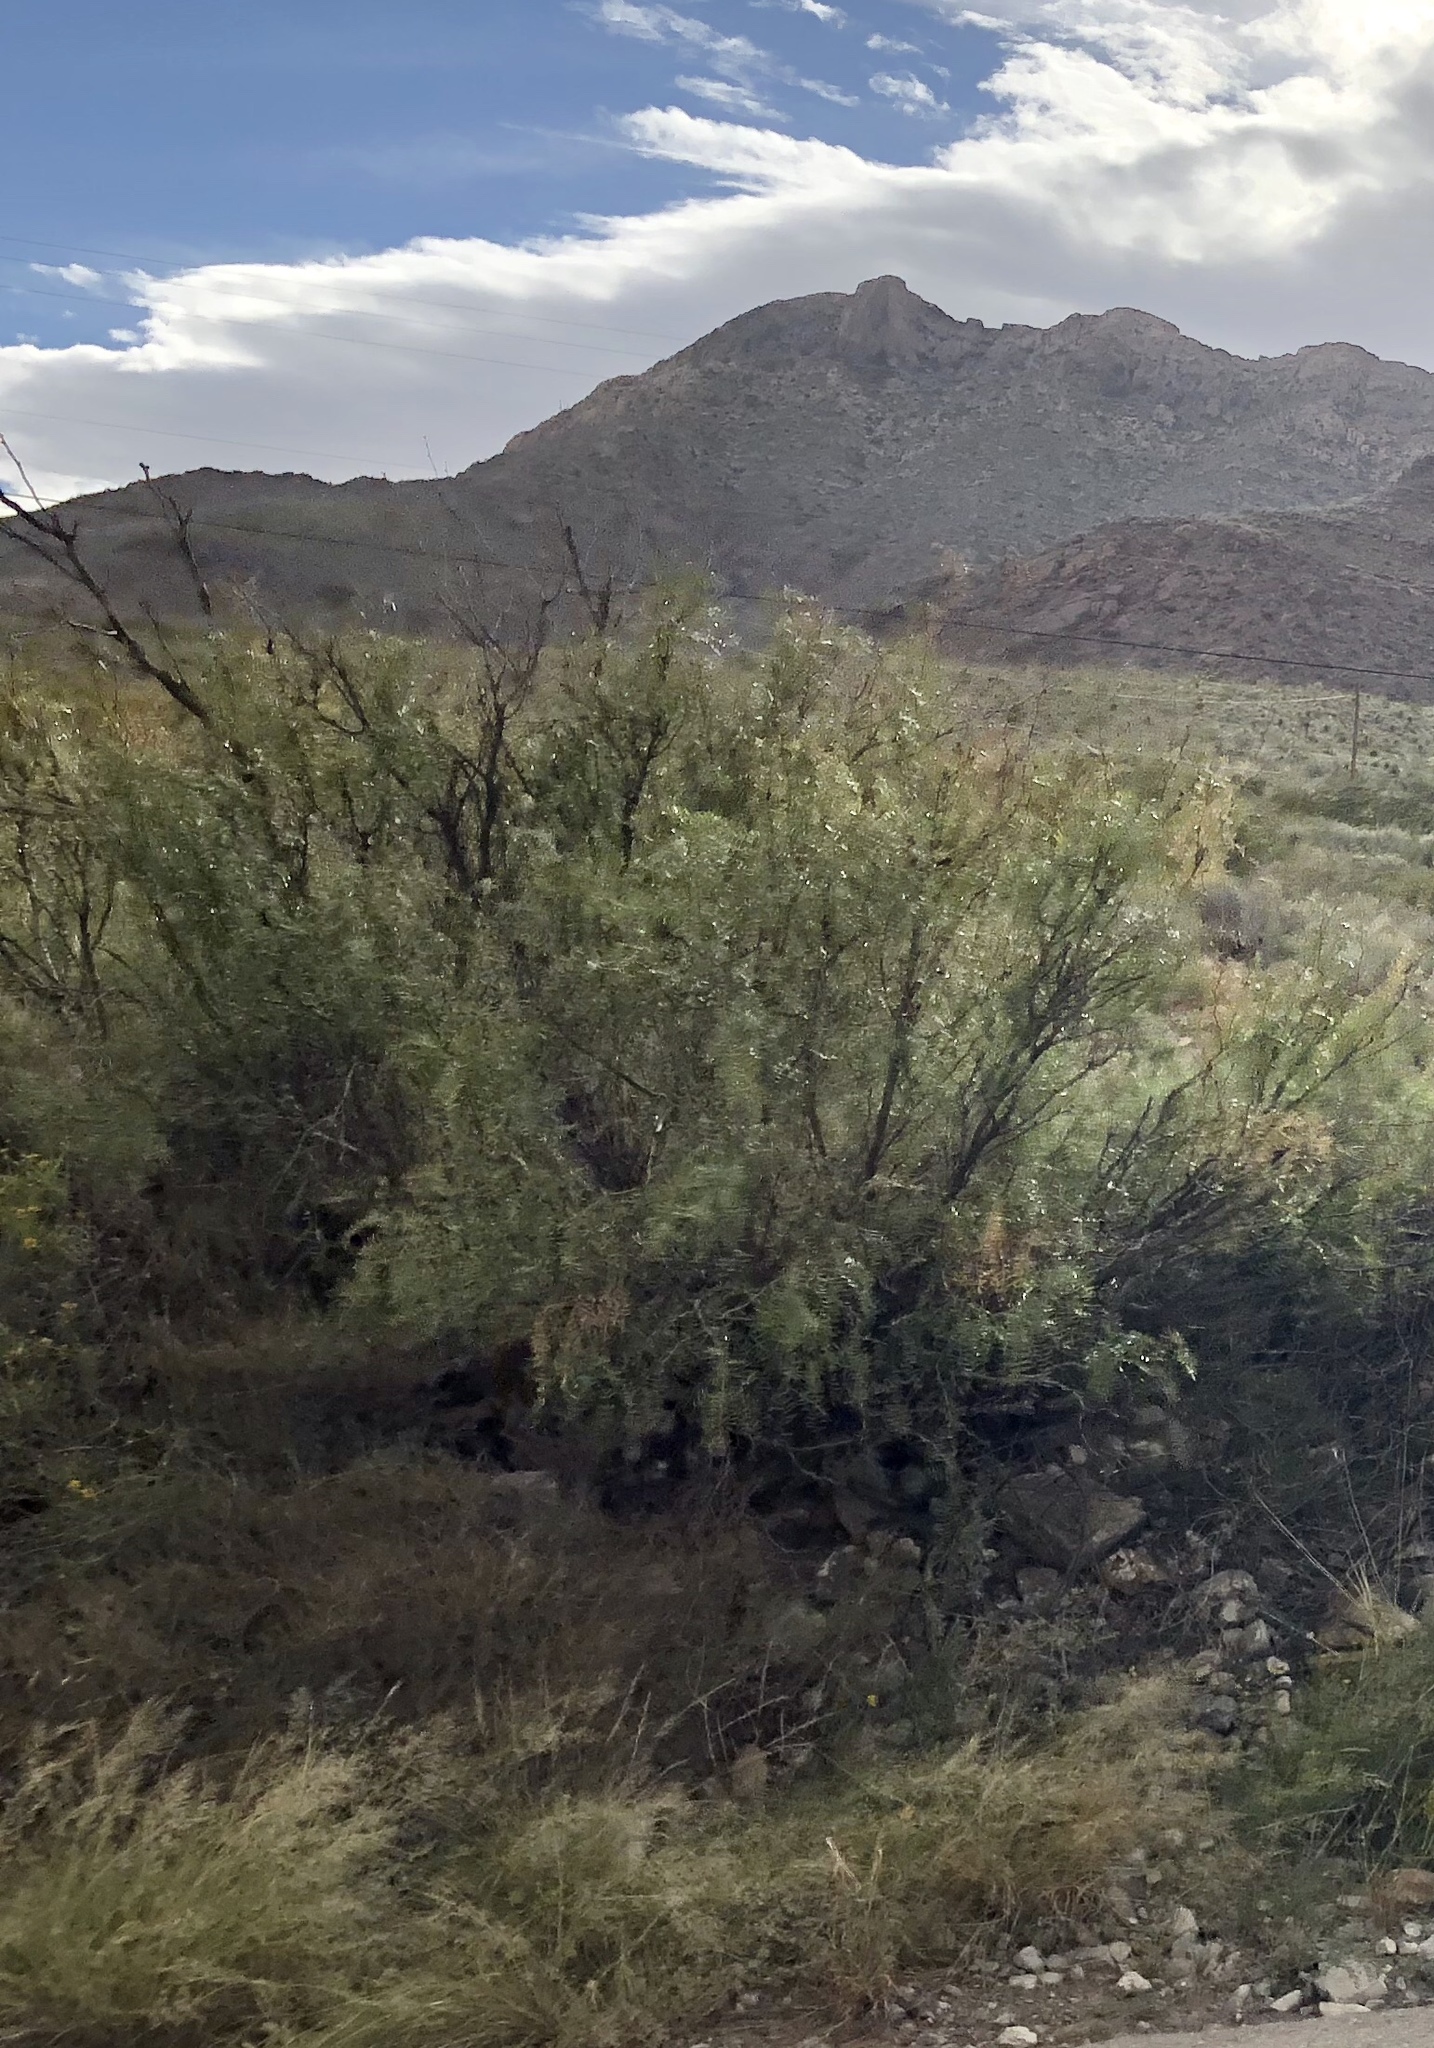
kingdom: Plantae
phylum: Tracheophyta
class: Magnoliopsida
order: Fabales
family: Fabaceae
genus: Prosopis
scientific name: Prosopis glandulosa
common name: Honey mesquite
